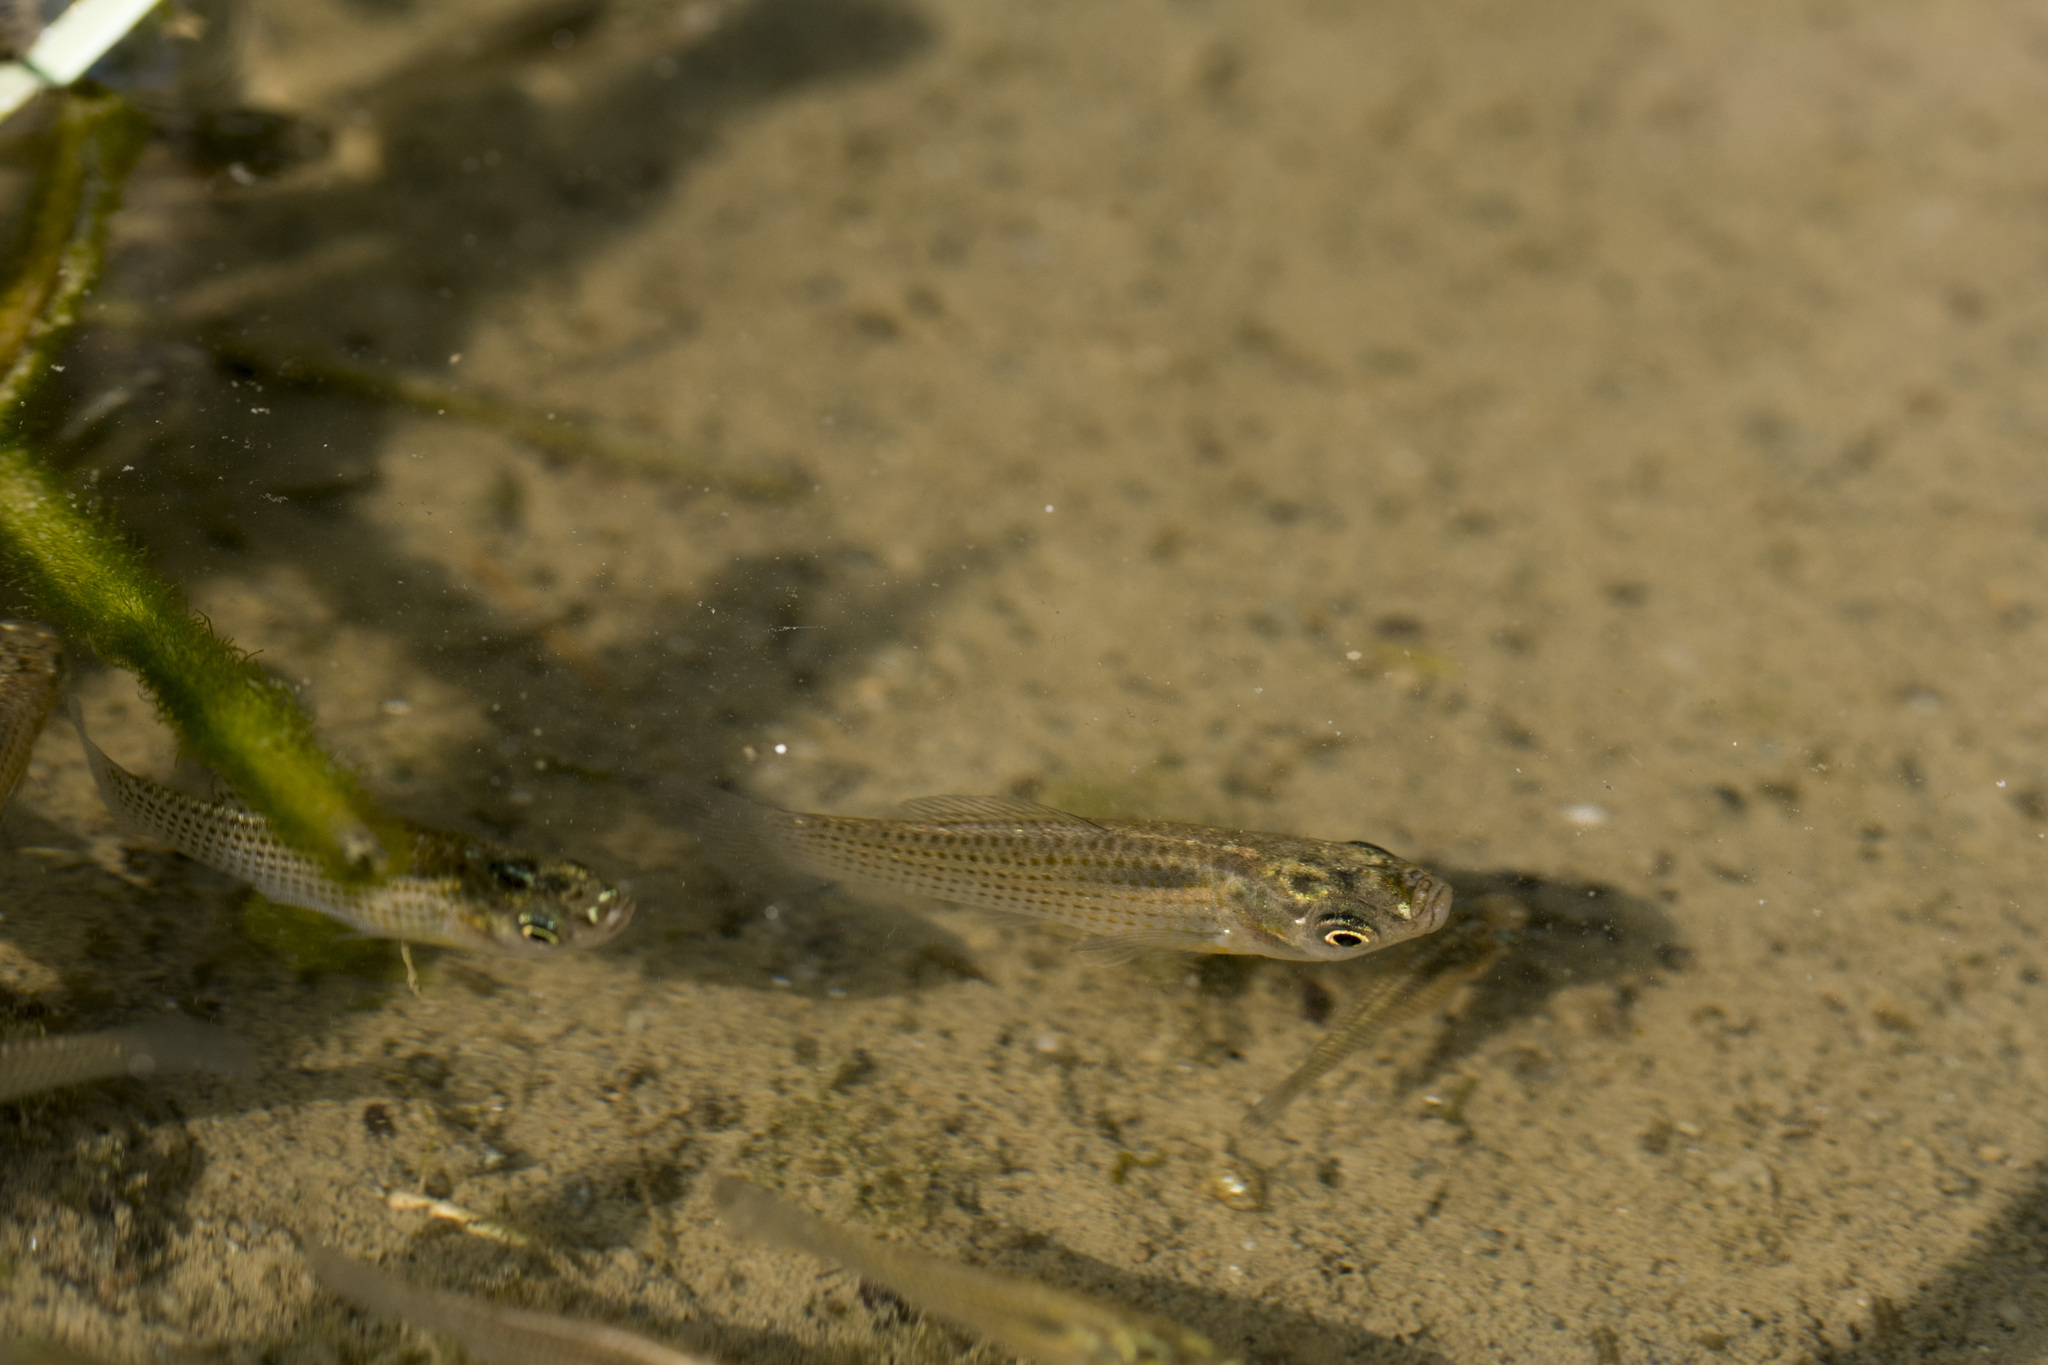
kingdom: Animalia
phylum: Chordata
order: Cyprinodontiformes
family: Poeciliidae
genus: Poecilia
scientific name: Poecilia latipinna
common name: Sailfin molly
